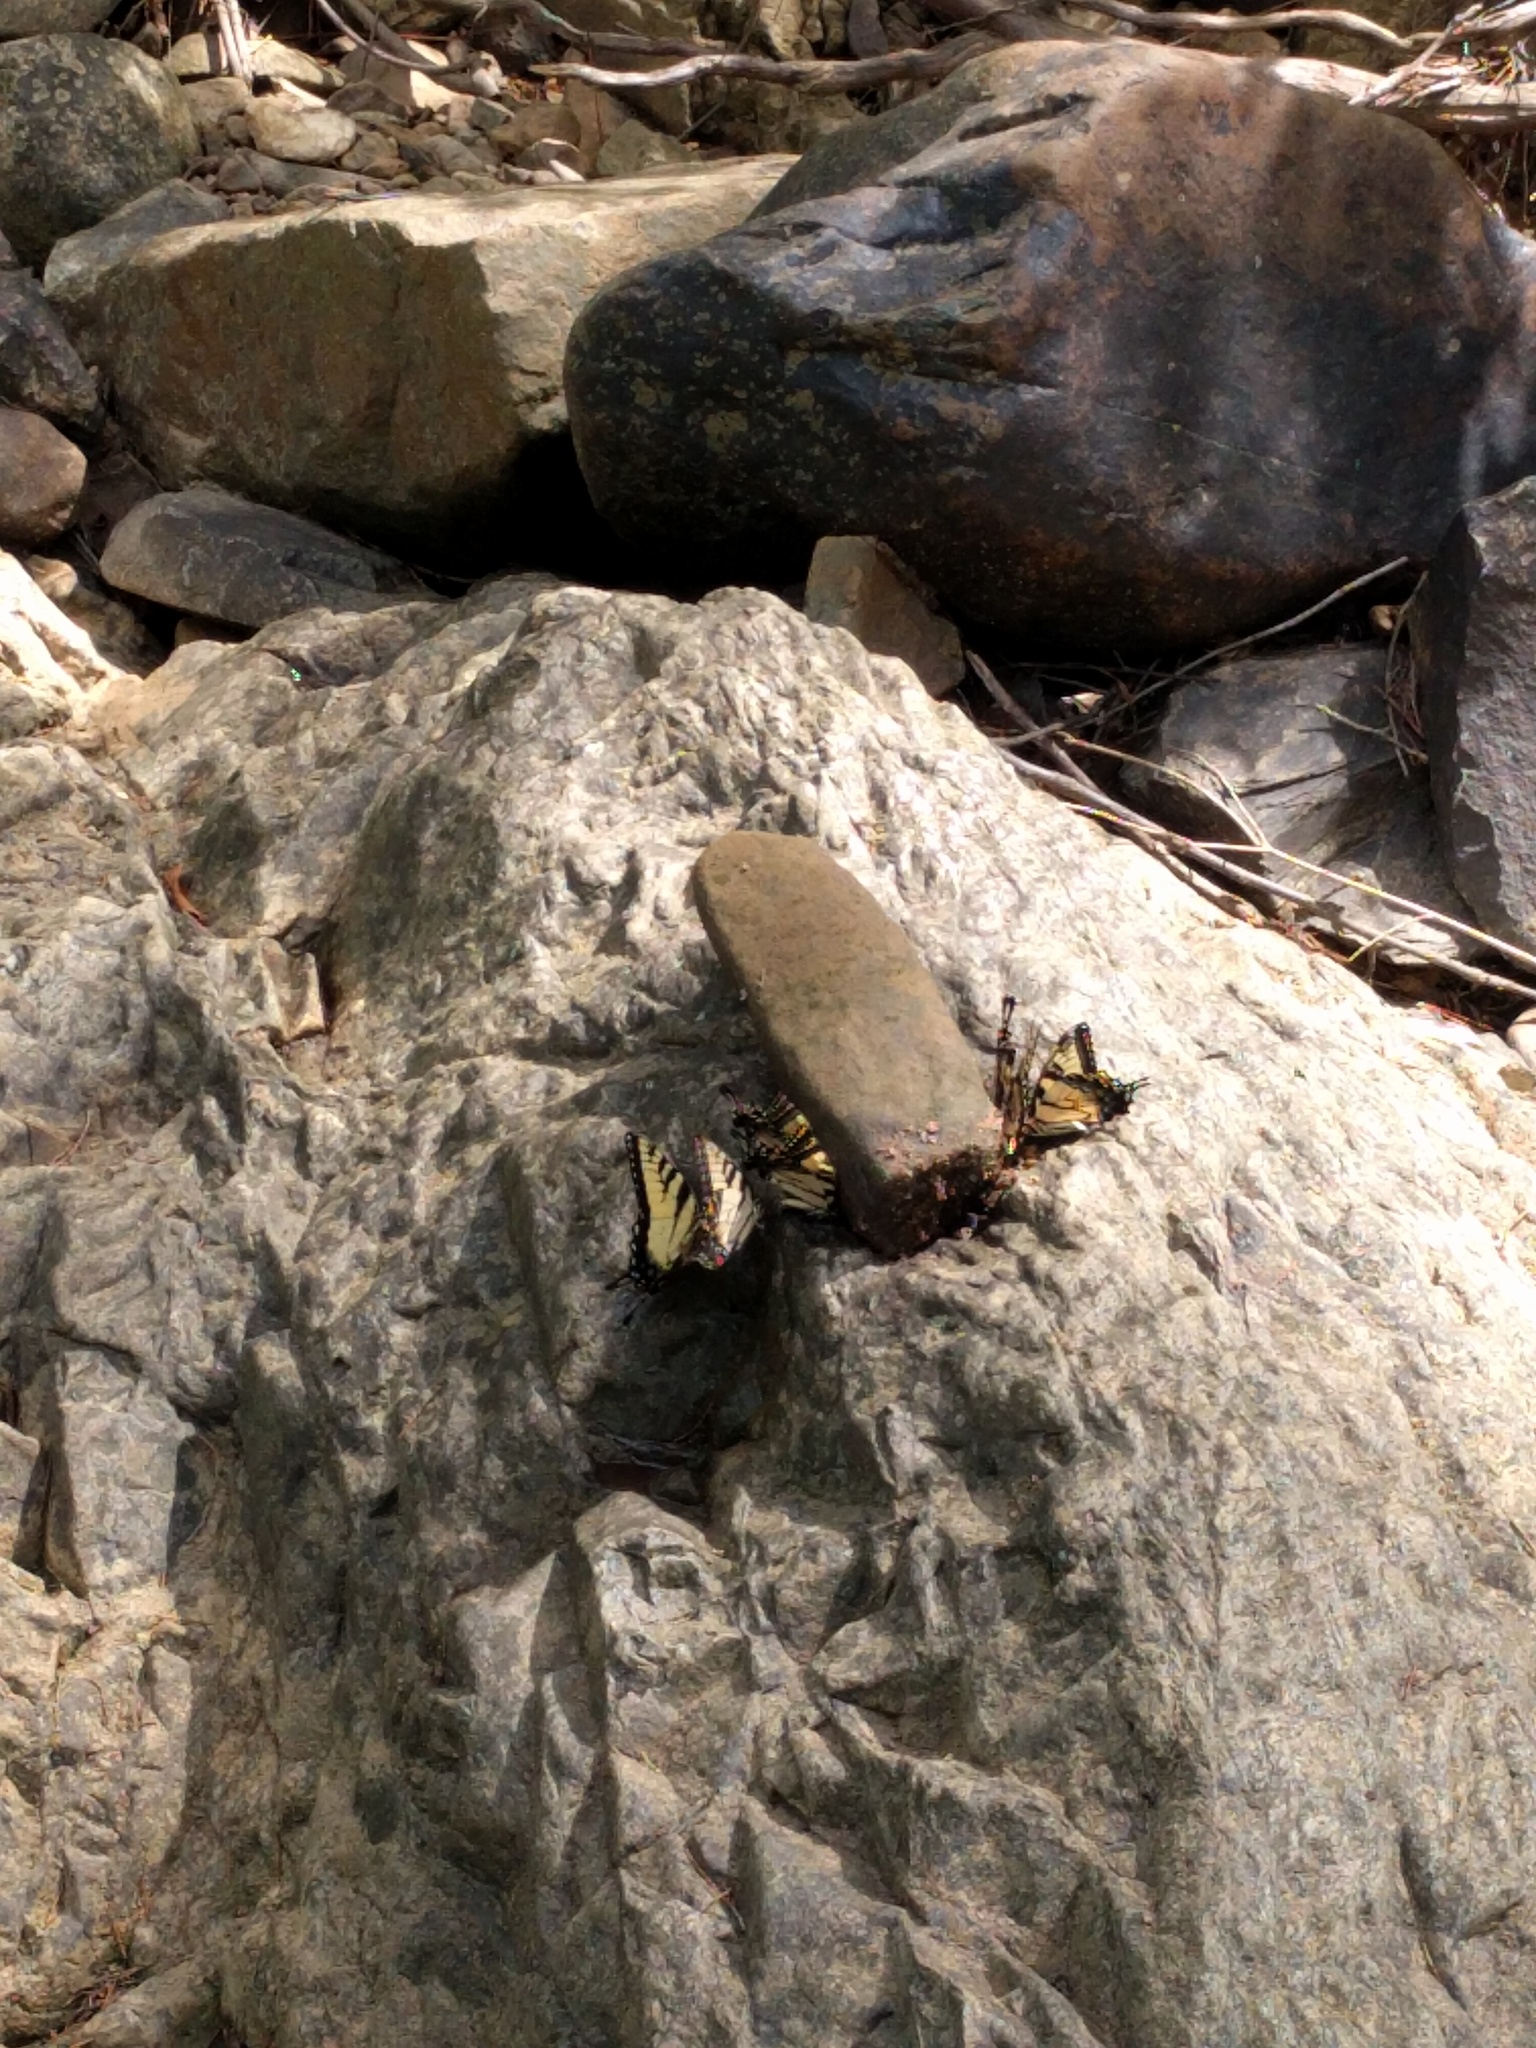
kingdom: Animalia
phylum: Arthropoda
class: Insecta
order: Lepidoptera
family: Papilionidae
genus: Papilio
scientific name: Papilio glaucus
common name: Tiger swallowtail
